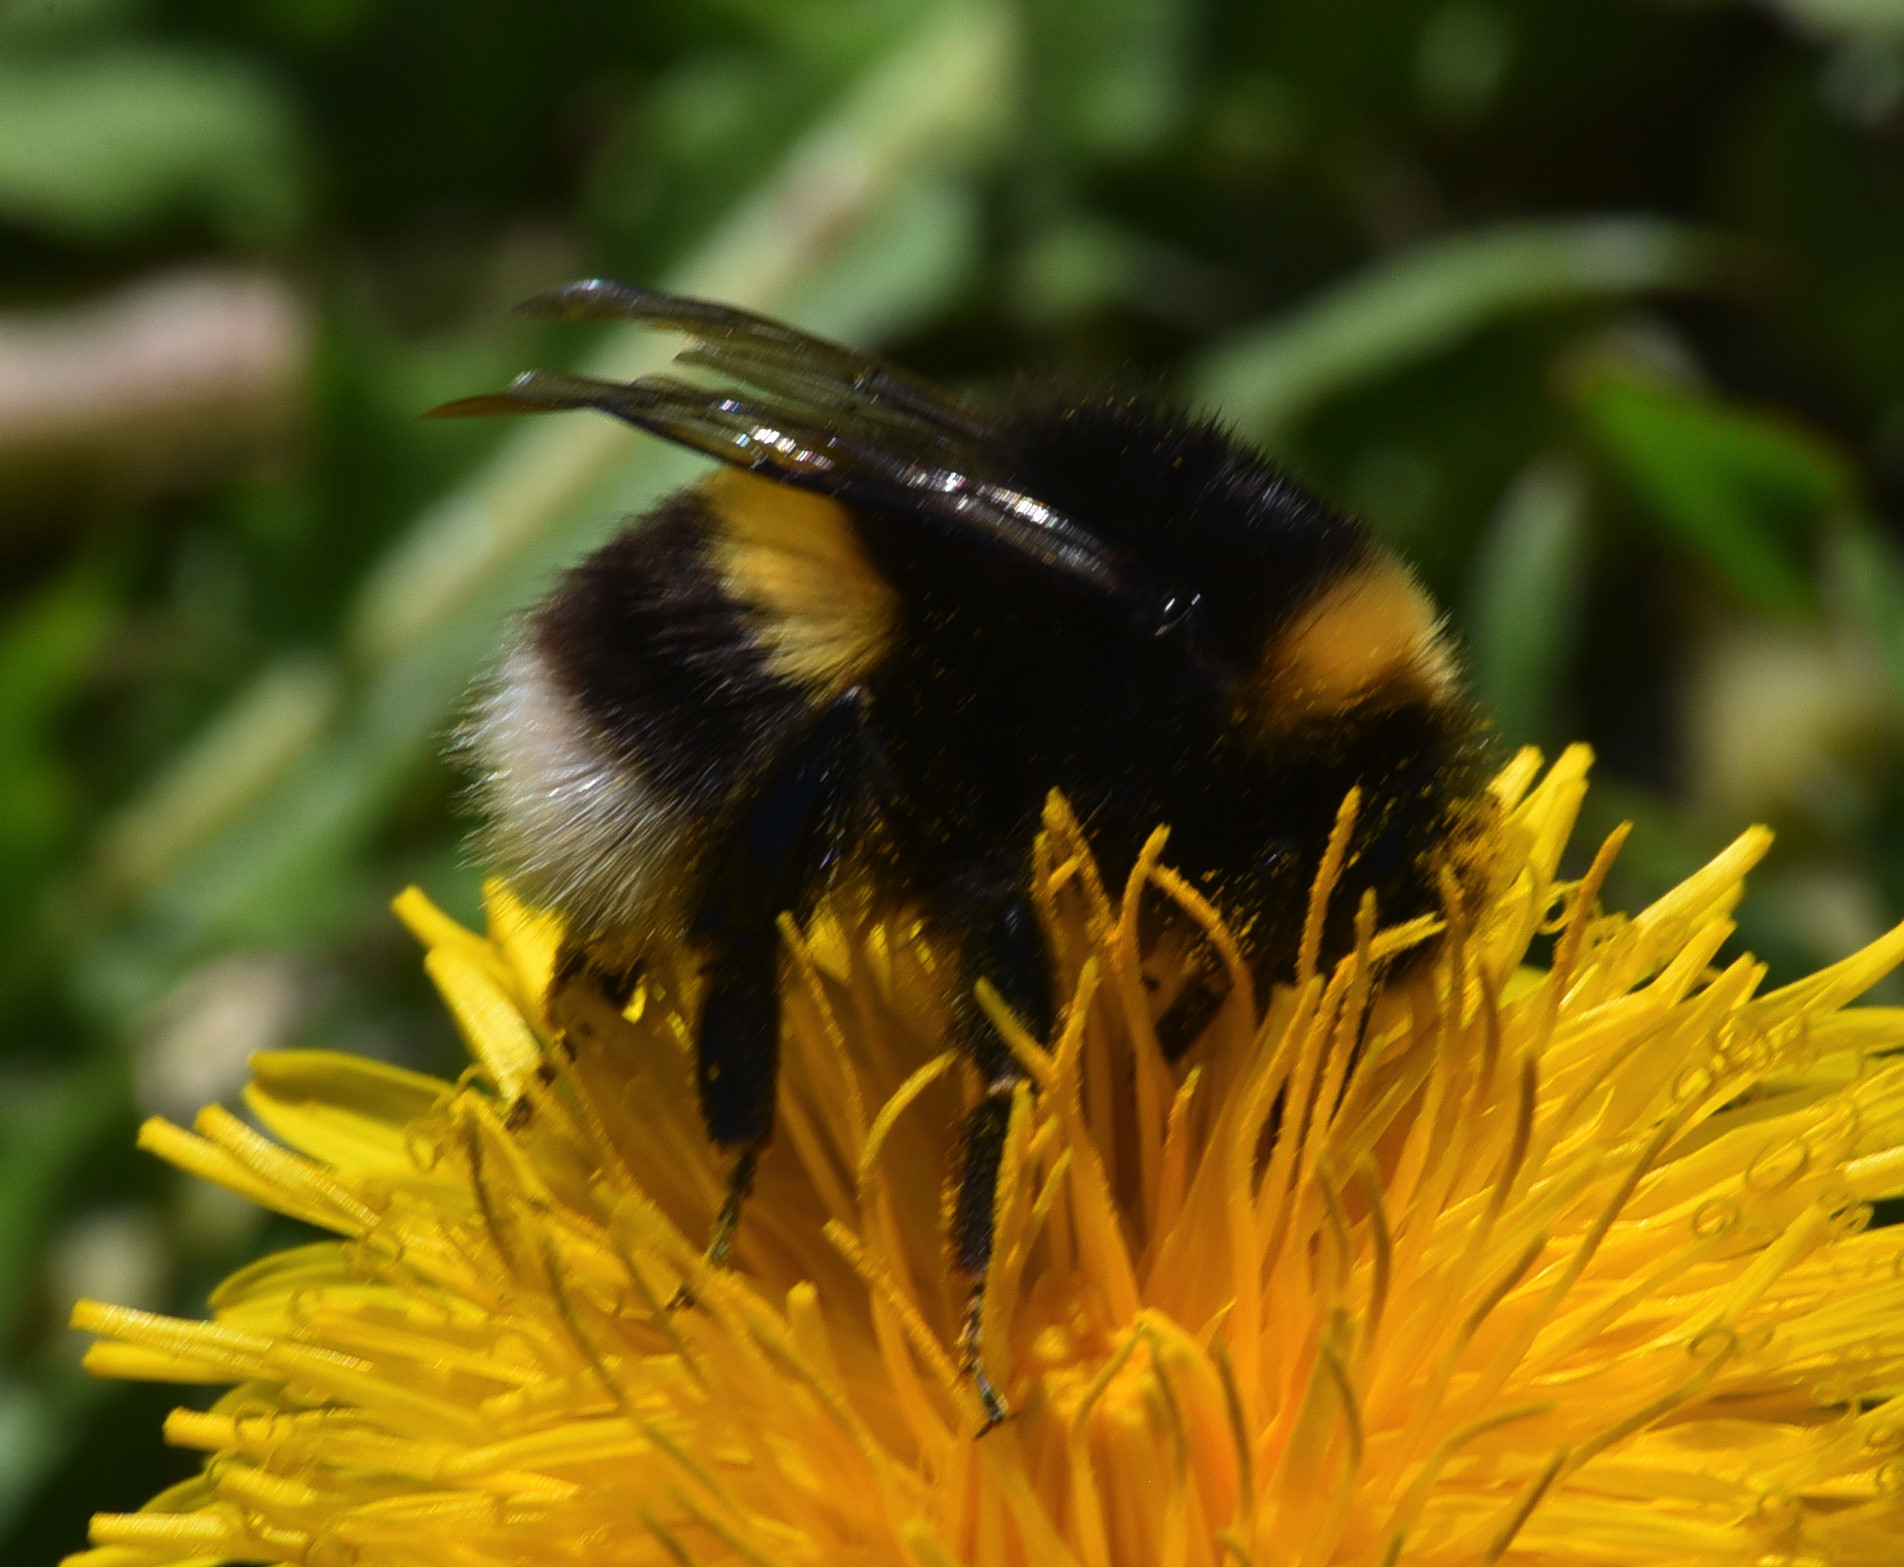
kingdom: Animalia
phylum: Arthropoda
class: Insecta
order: Hymenoptera
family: Apidae
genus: Bombus
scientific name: Bombus lucorum
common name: White-tailed bumblebee
